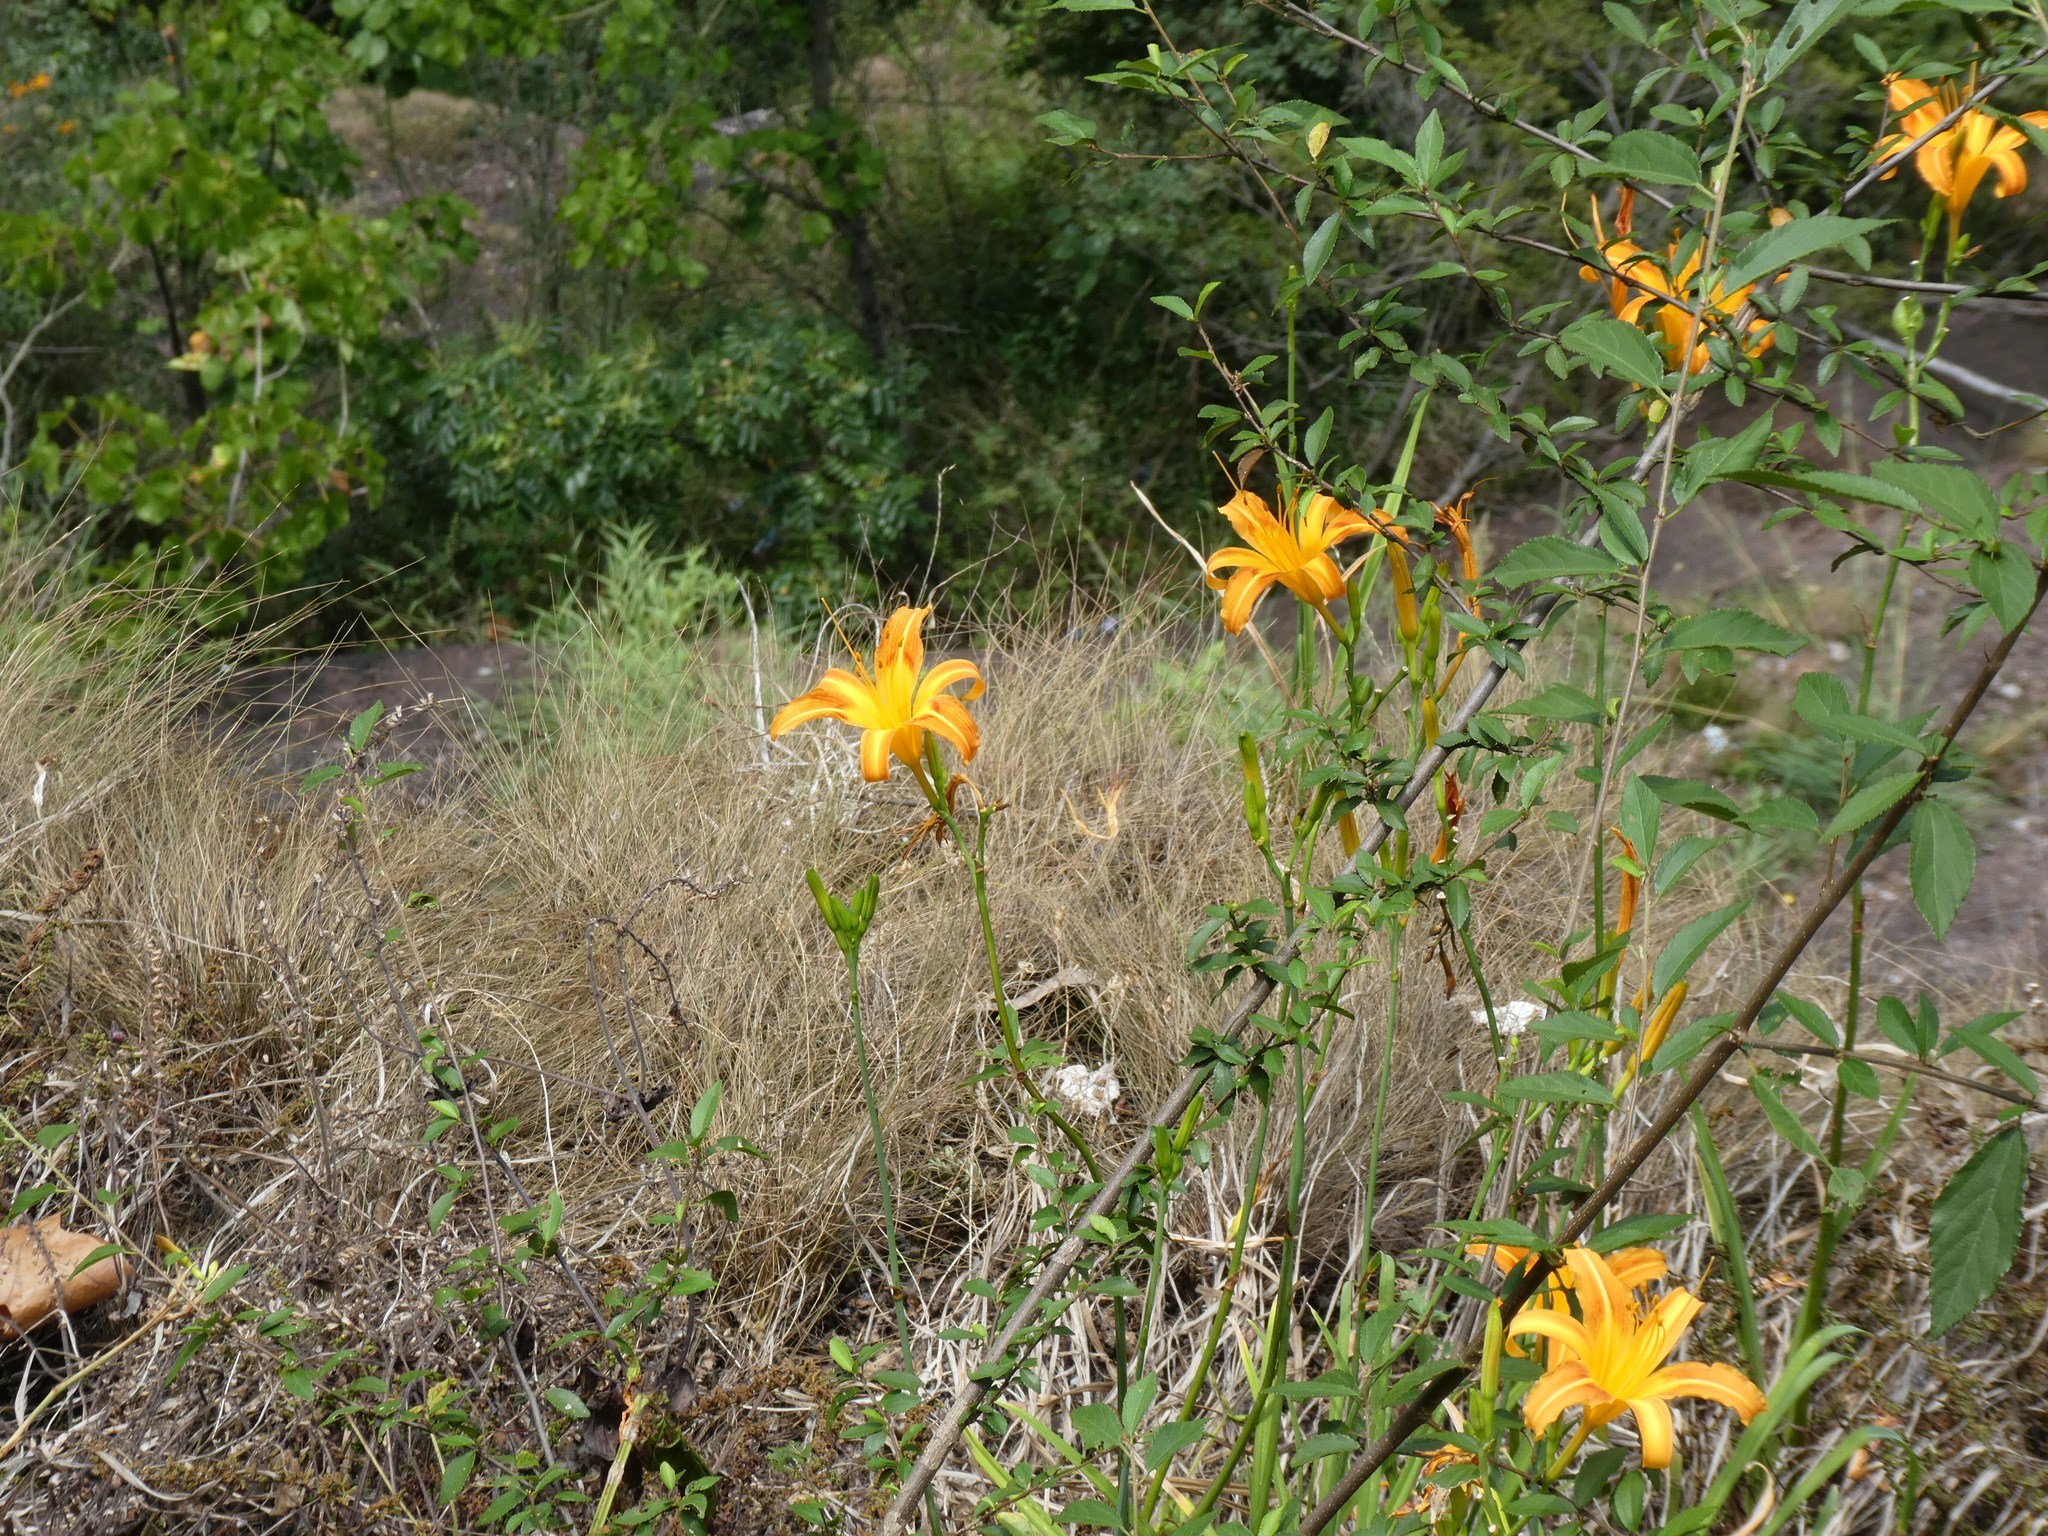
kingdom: Plantae
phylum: Tracheophyta
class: Liliopsida
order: Asparagales
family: Asphodelaceae
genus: Hemerocallis
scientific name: Hemerocallis fulva
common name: Orange day-lily
